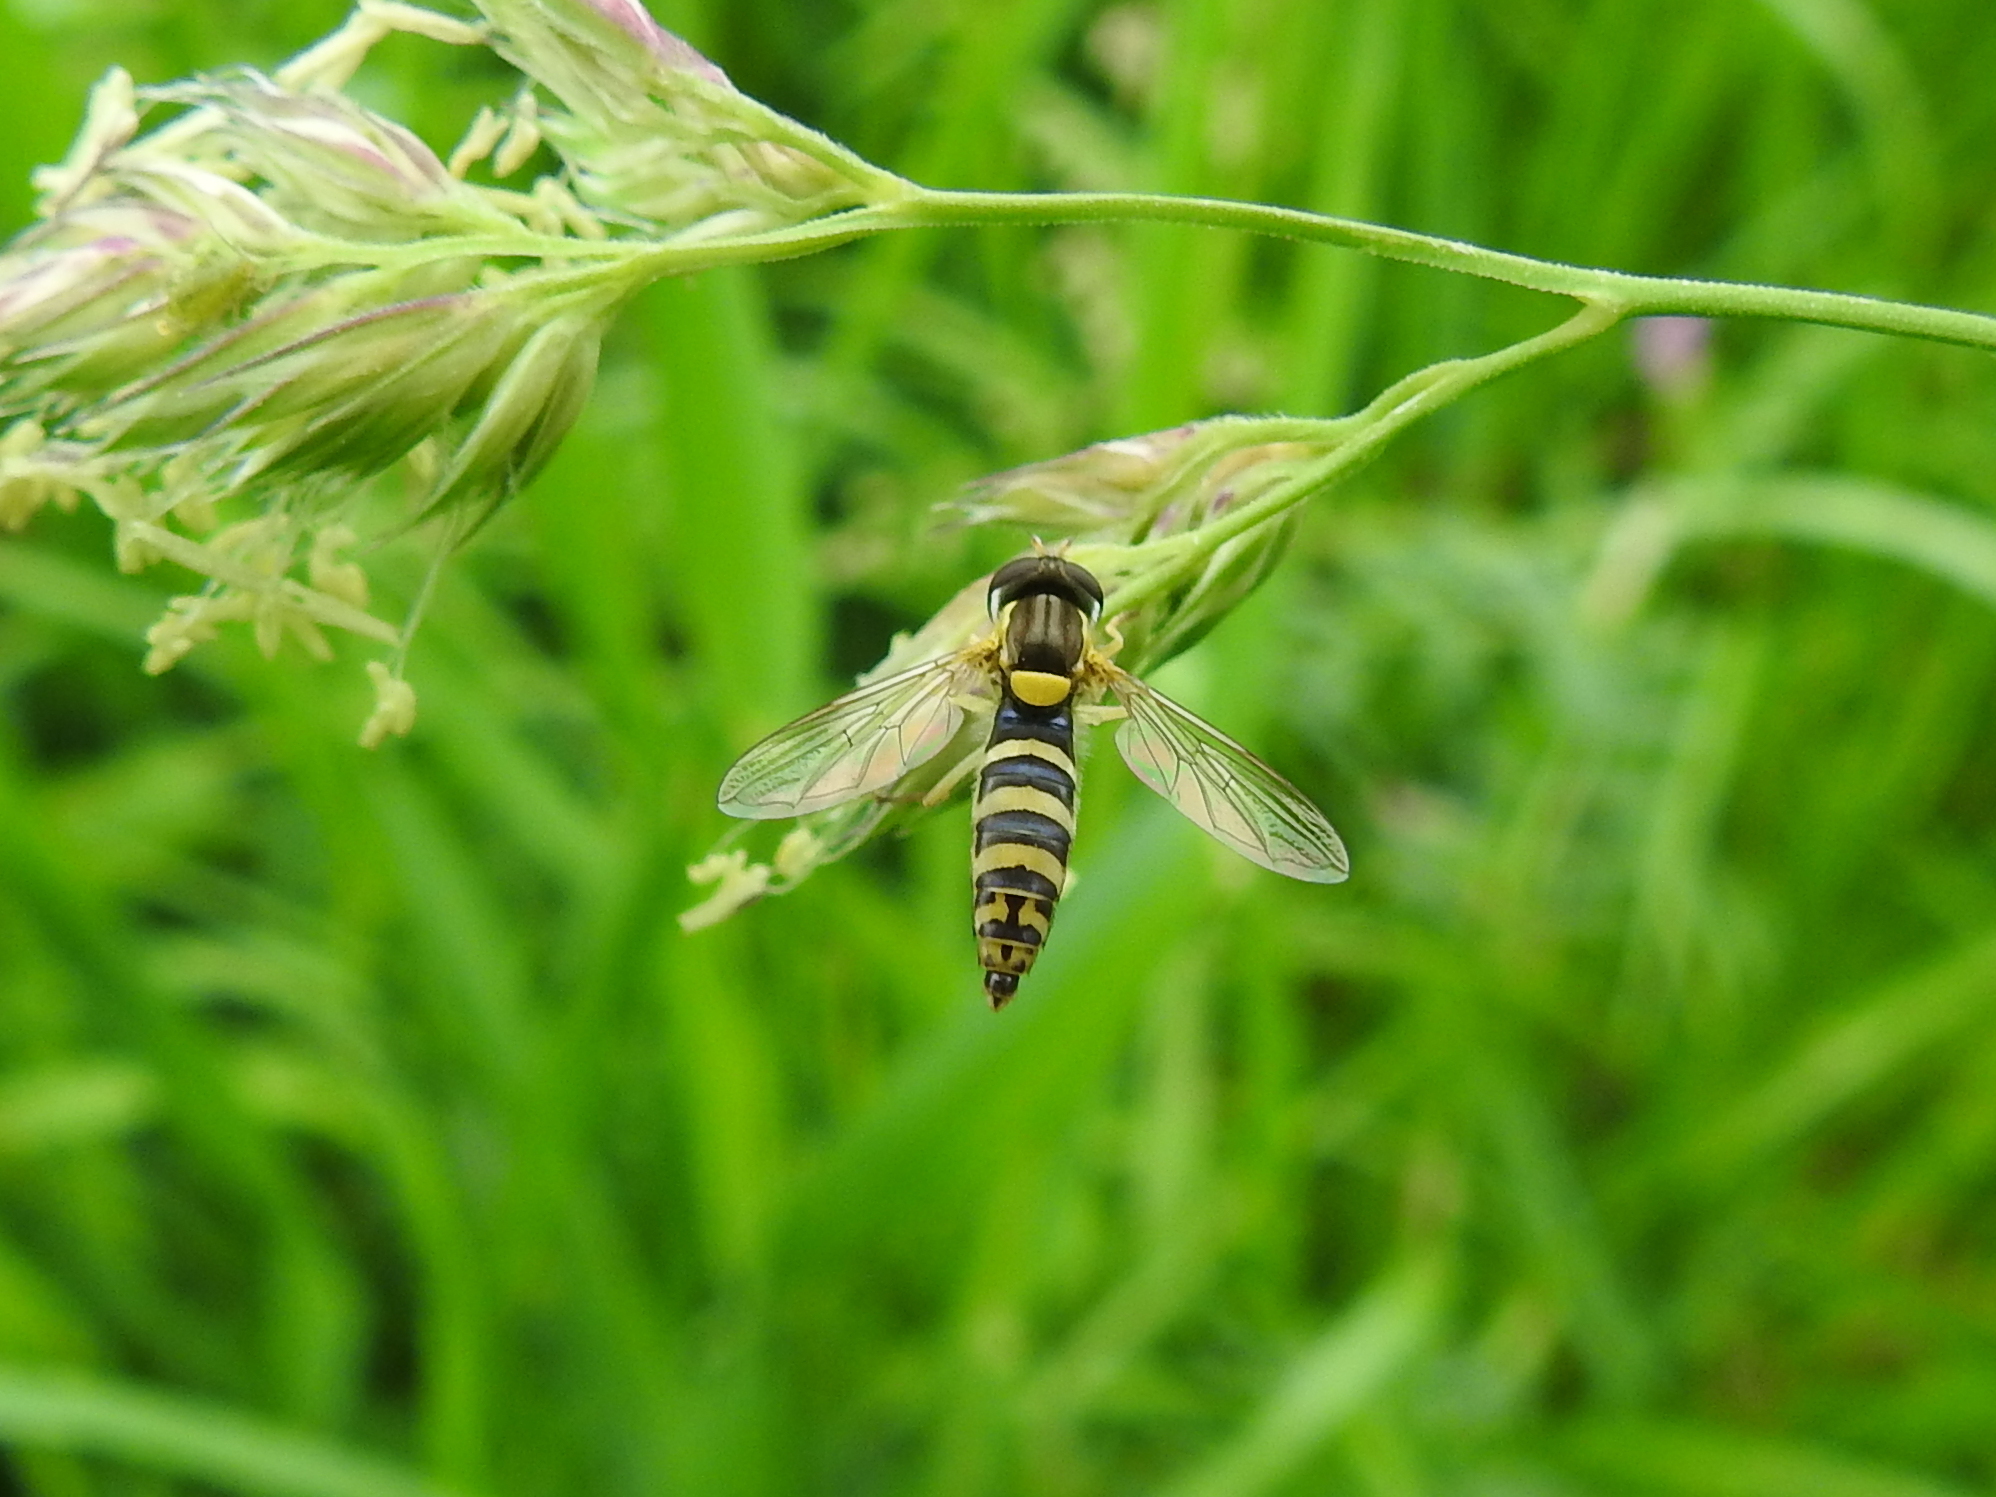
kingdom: Animalia
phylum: Arthropoda
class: Insecta
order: Diptera
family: Syrphidae
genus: Sphaerophoria
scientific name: Sphaerophoria
